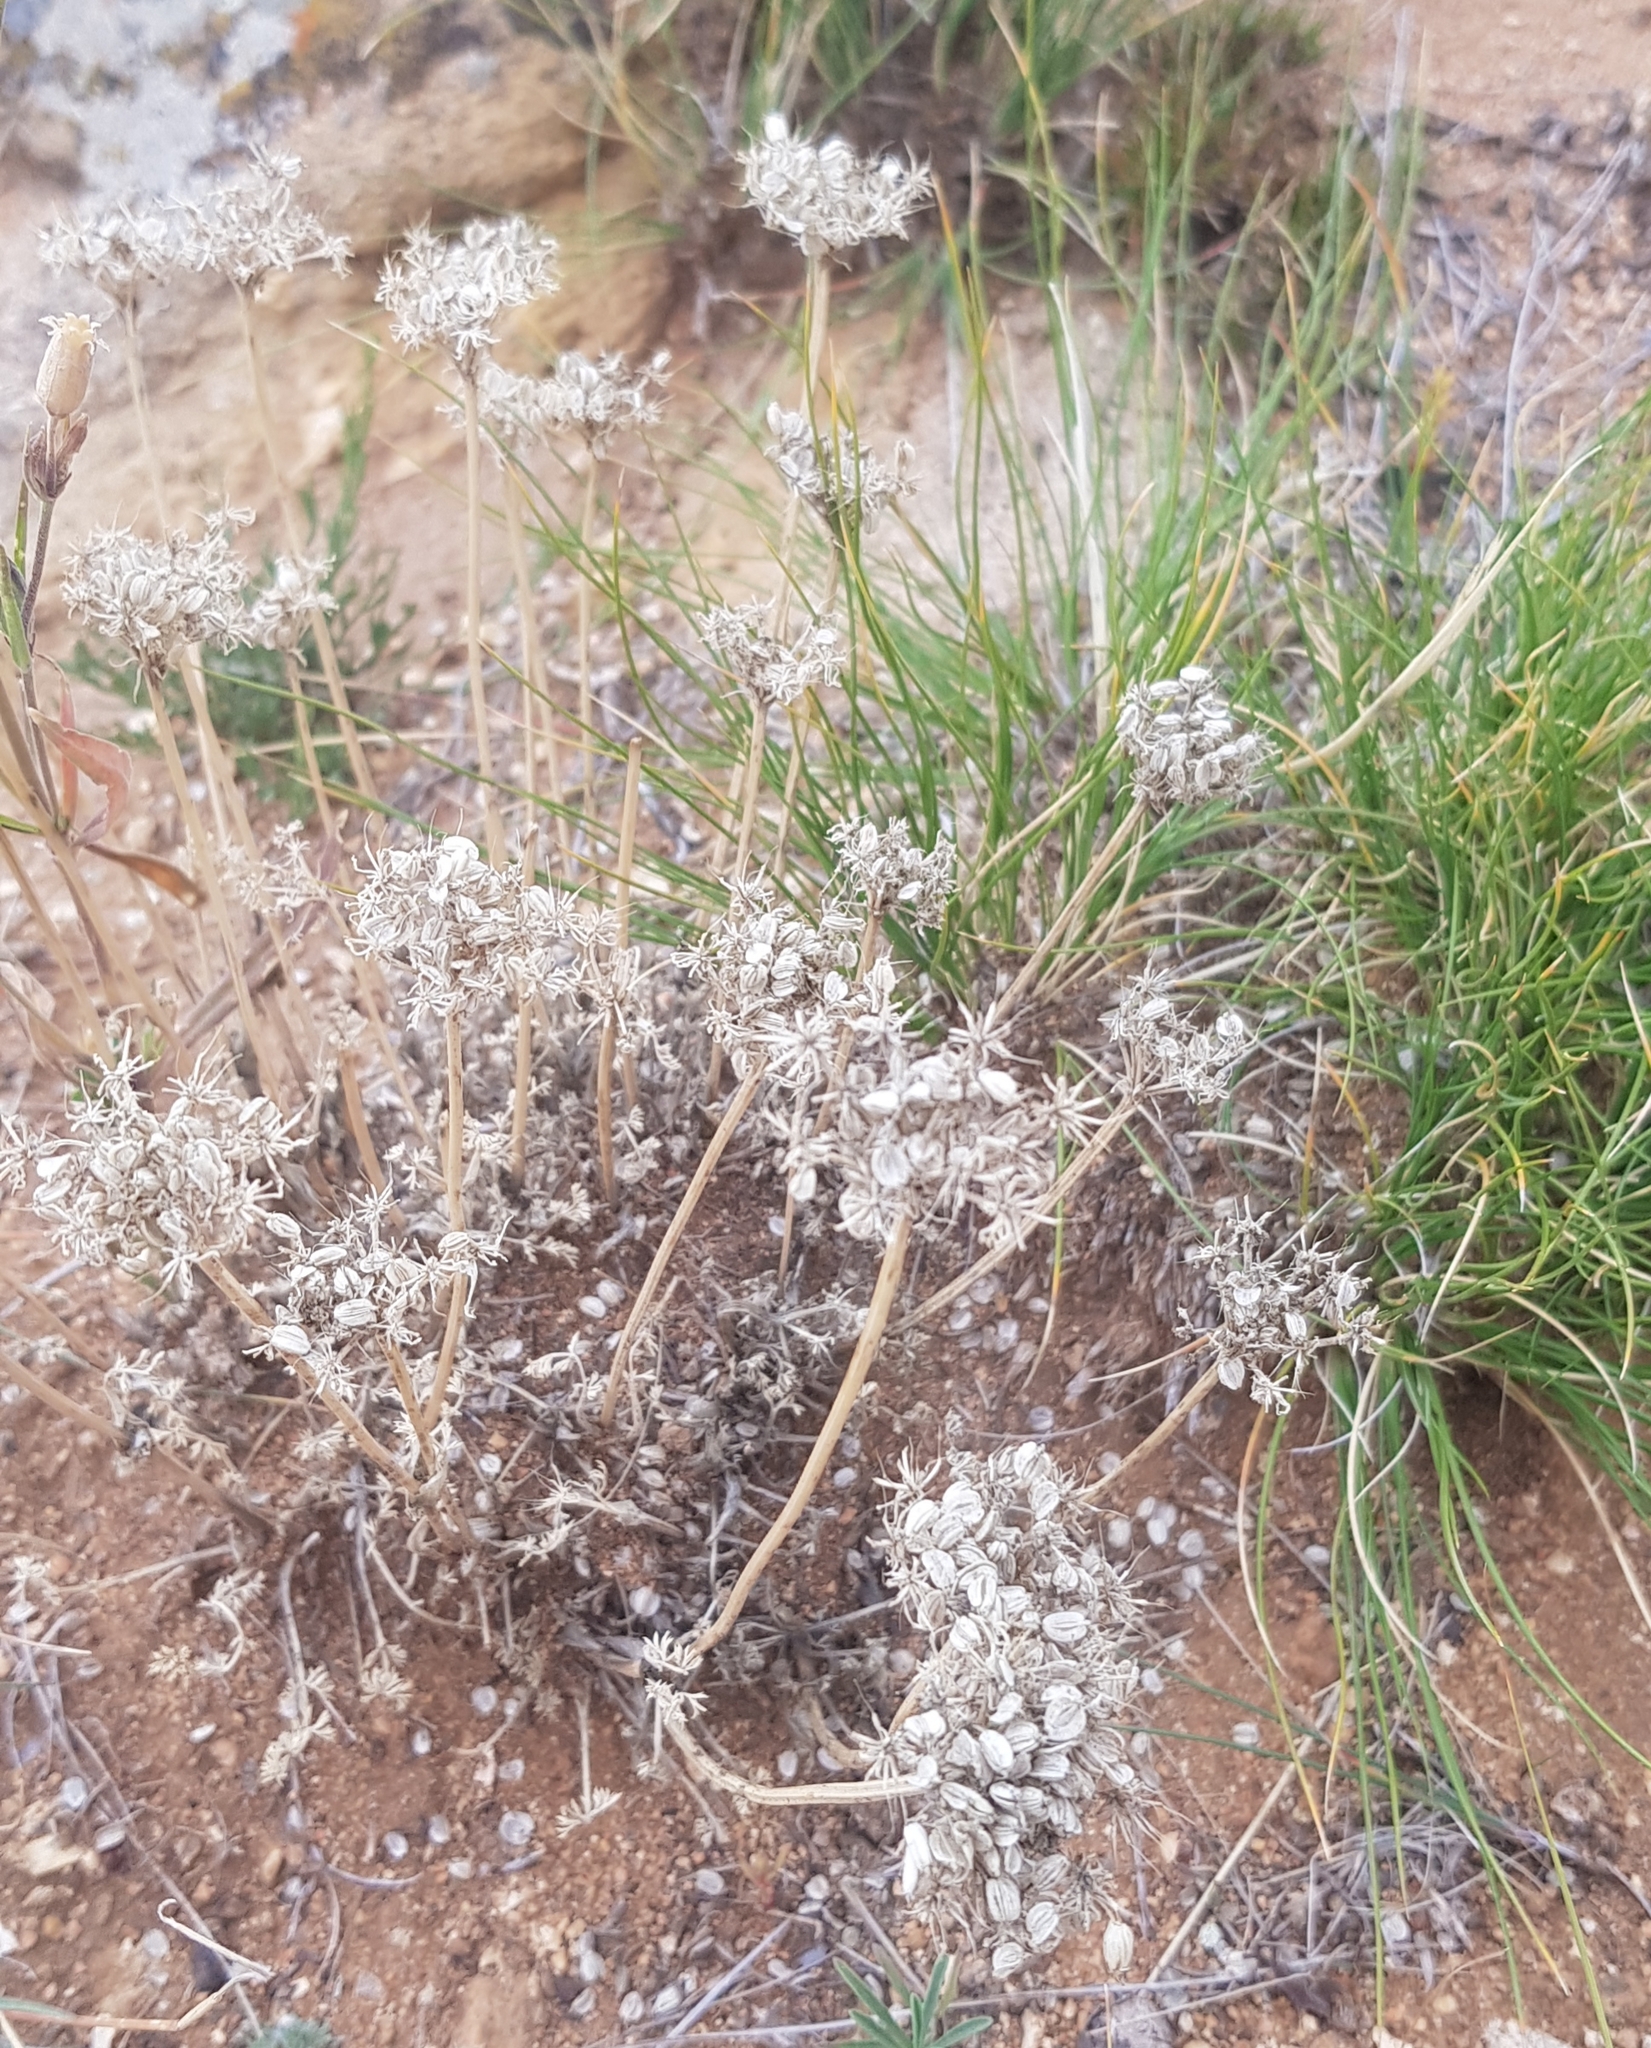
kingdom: Plantae
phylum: Tracheophyta
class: Magnoliopsida
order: Apiales
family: Apiaceae
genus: Ferulopsis
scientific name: Ferulopsis hystrix
